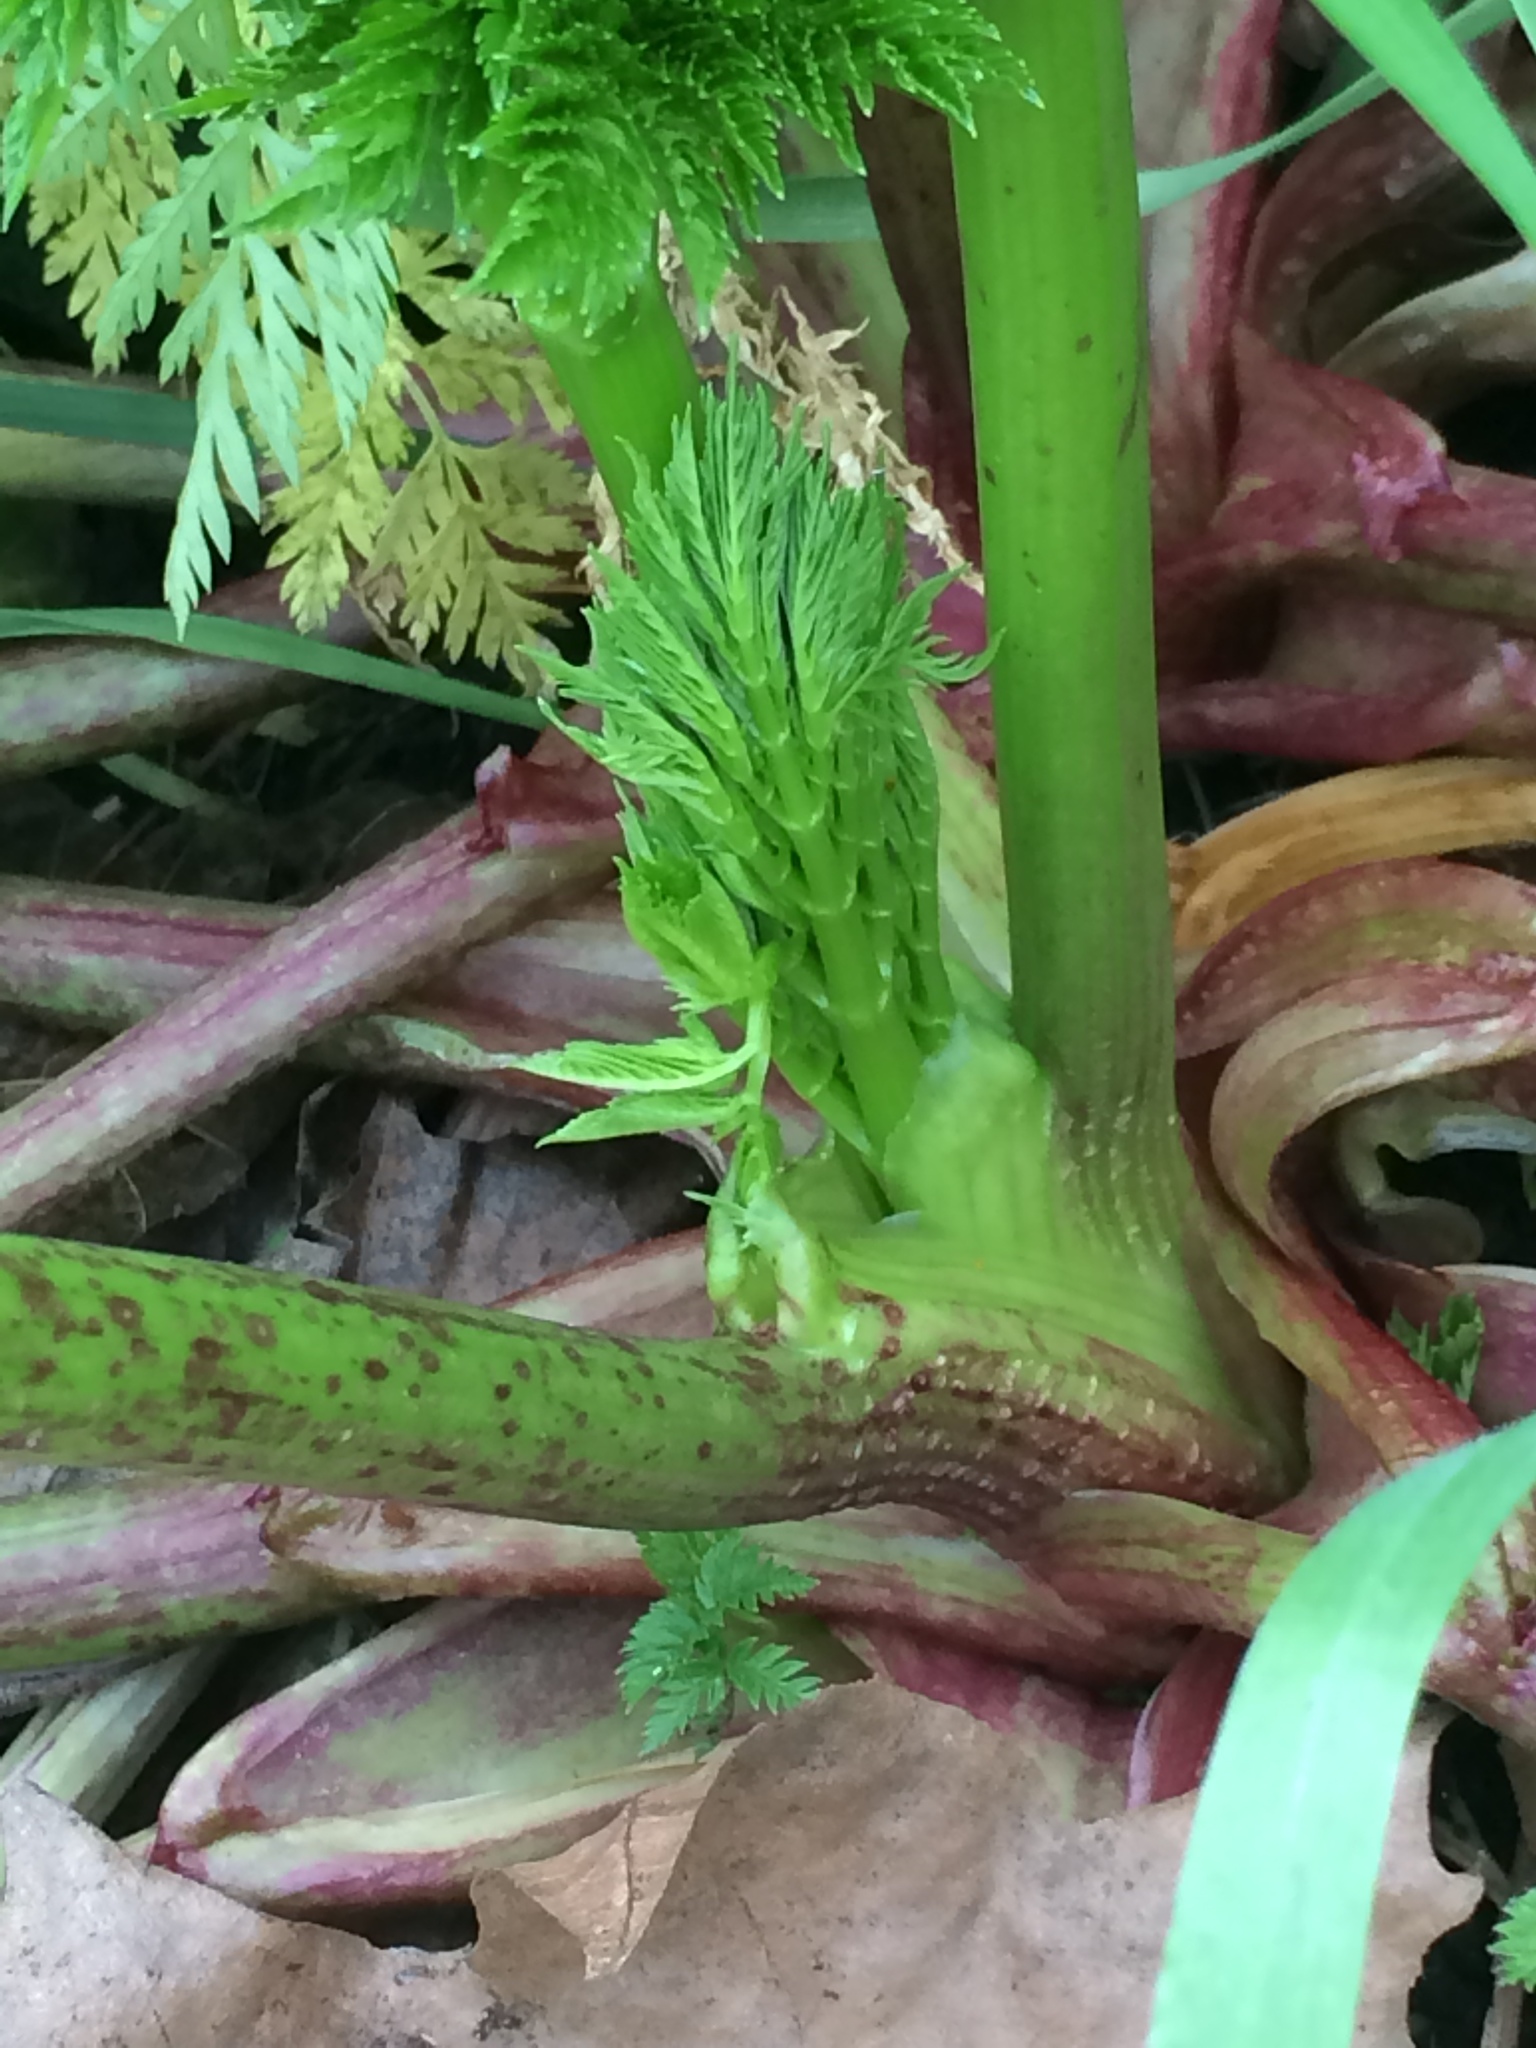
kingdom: Plantae
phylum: Tracheophyta
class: Magnoliopsida
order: Apiales
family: Apiaceae
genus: Conium
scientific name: Conium maculatum
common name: Hemlock
